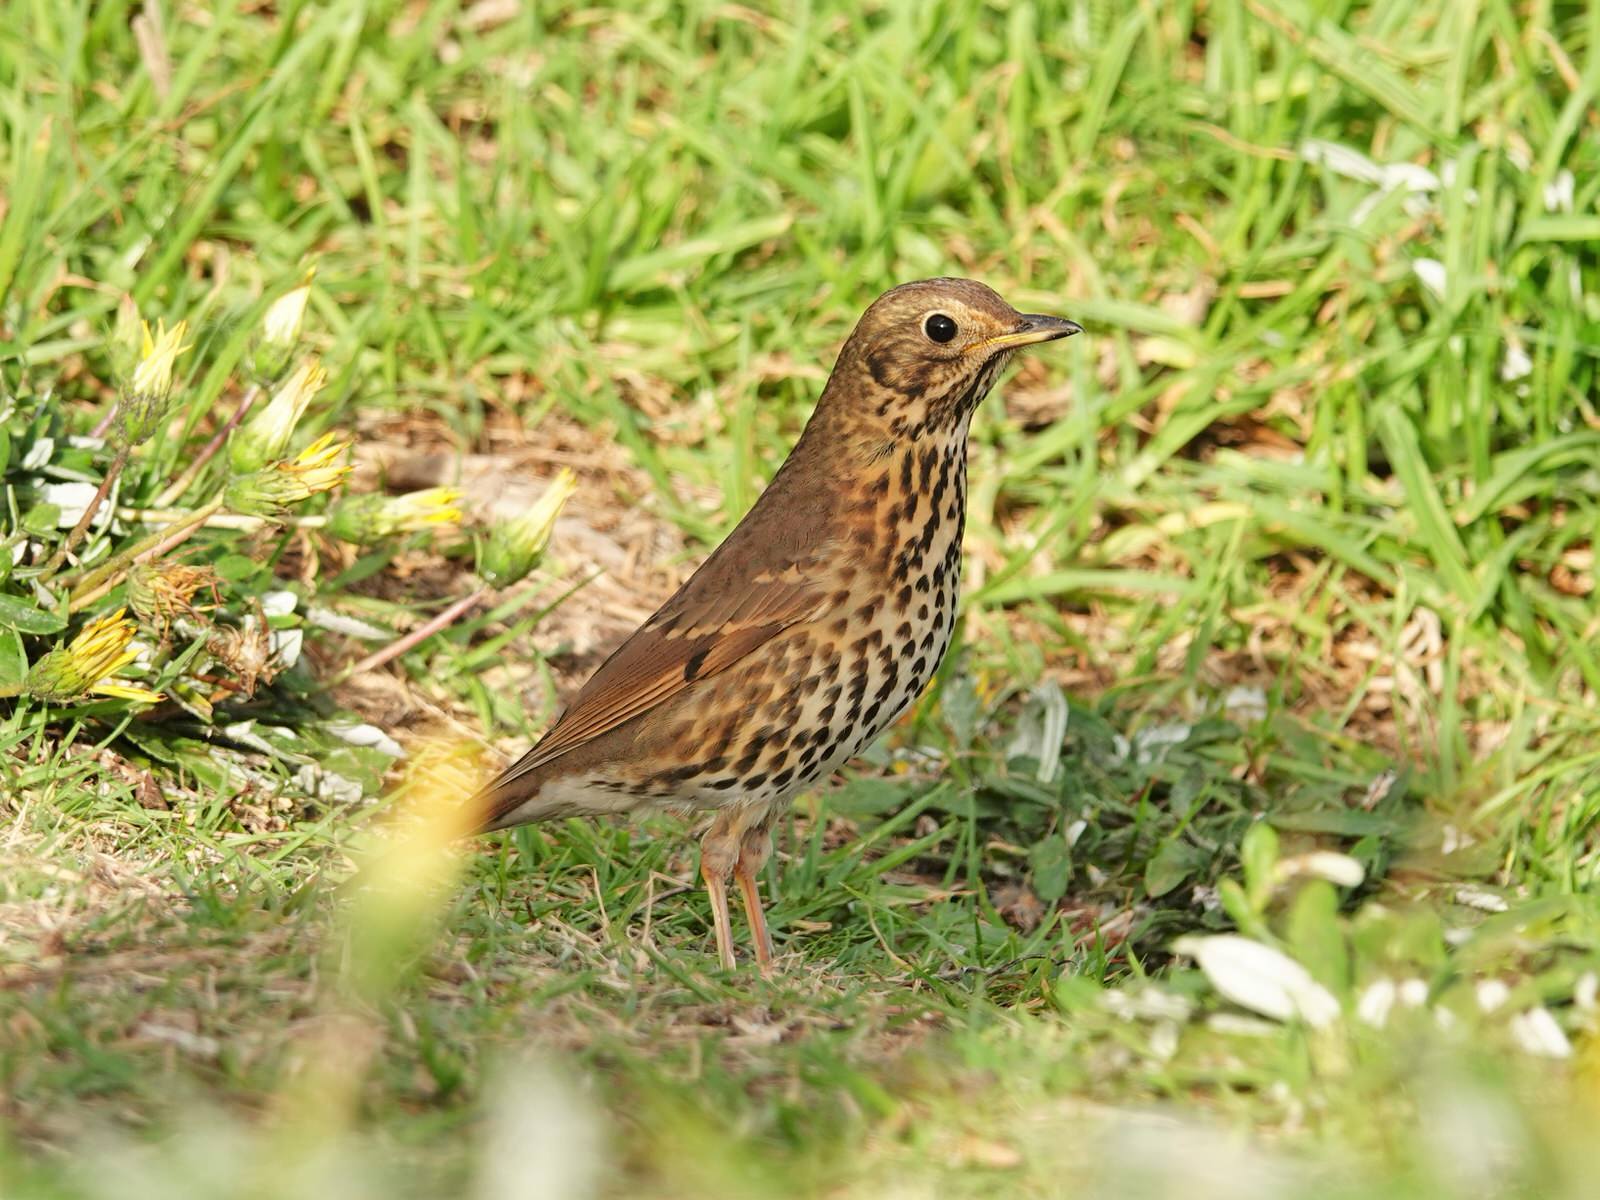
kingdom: Animalia
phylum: Chordata
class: Aves
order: Passeriformes
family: Turdidae
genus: Turdus
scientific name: Turdus philomelos
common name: Song thrush
